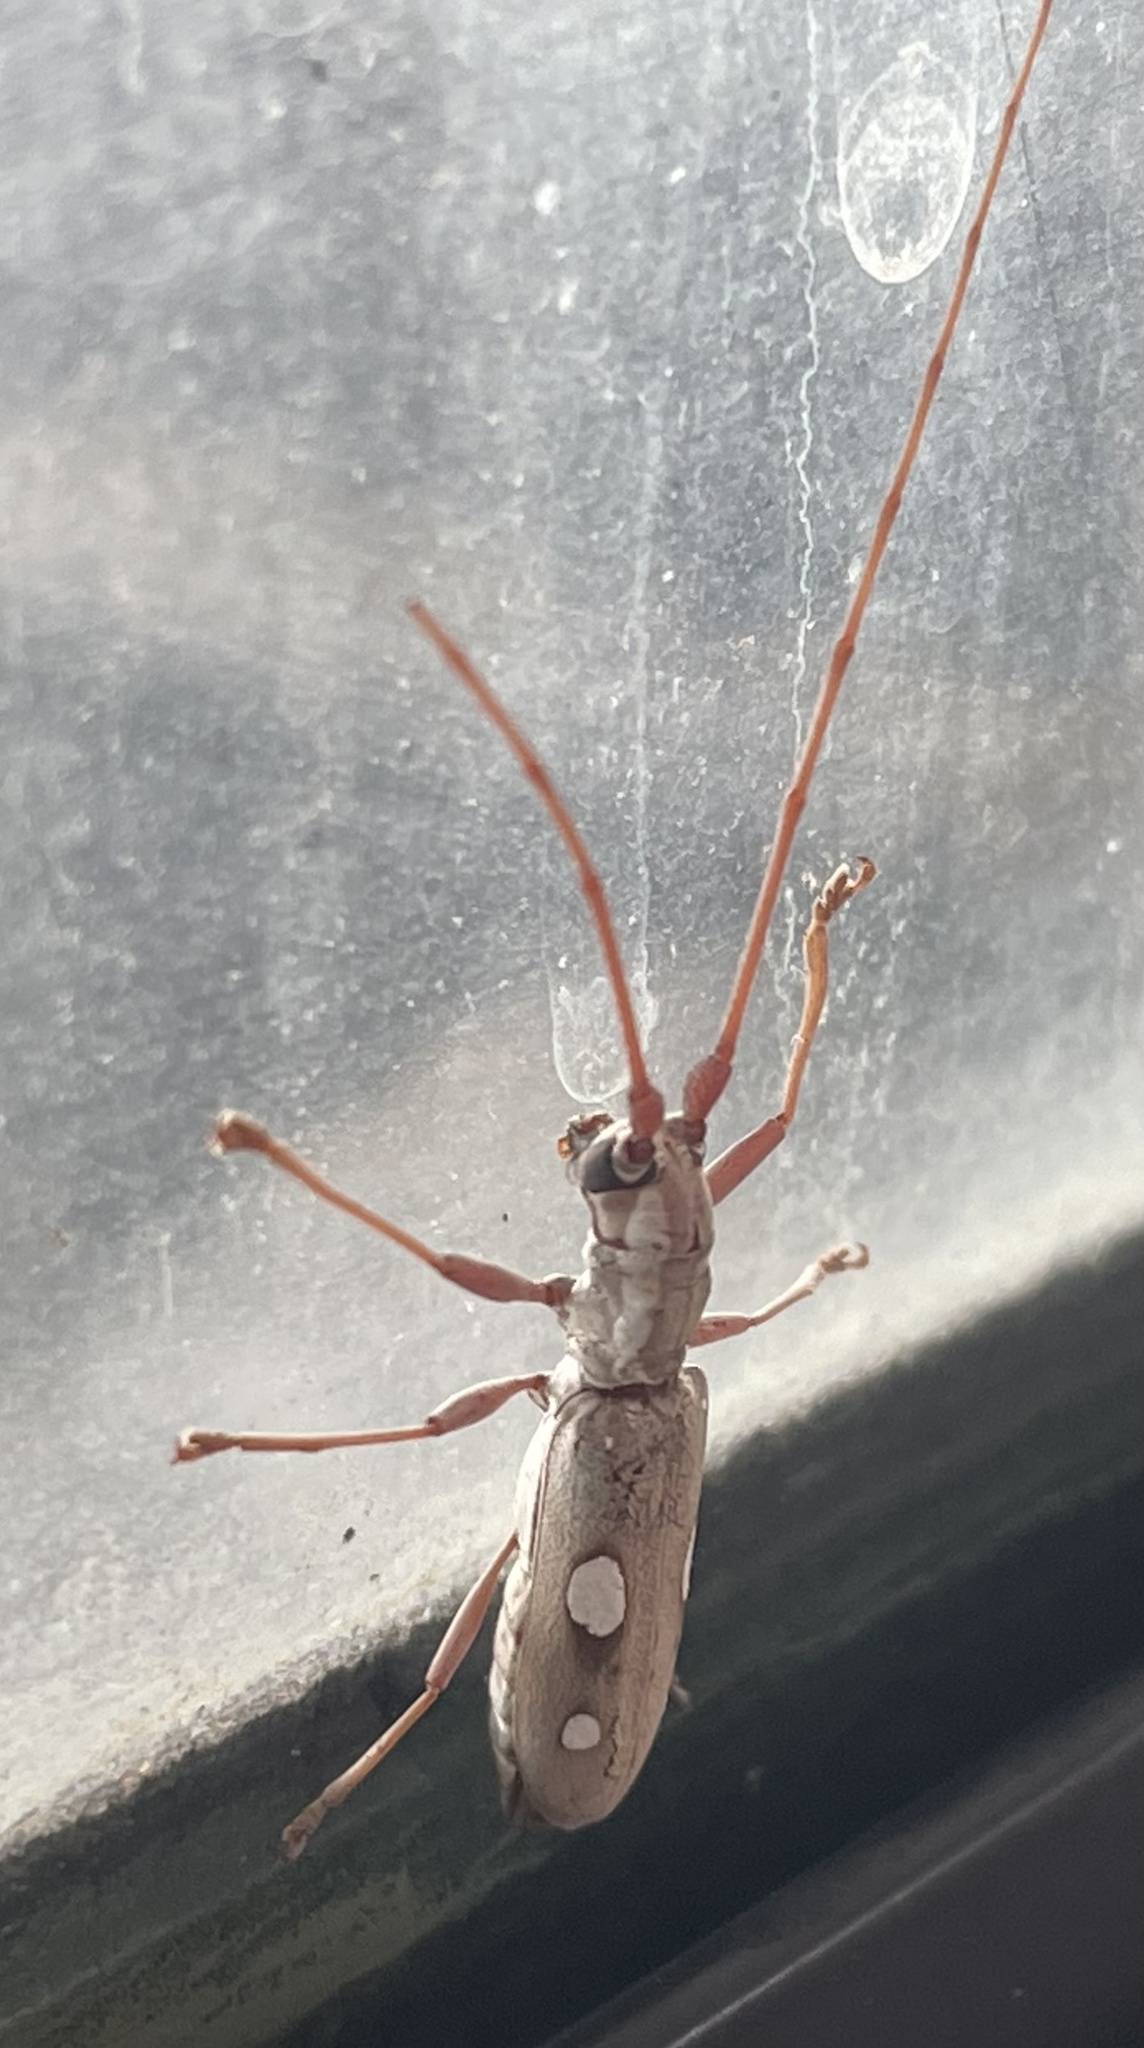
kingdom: Animalia
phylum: Arthropoda
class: Insecta
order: Coleoptera
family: Cerambycidae
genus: Olenecamptus
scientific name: Olenecamptus olenus
